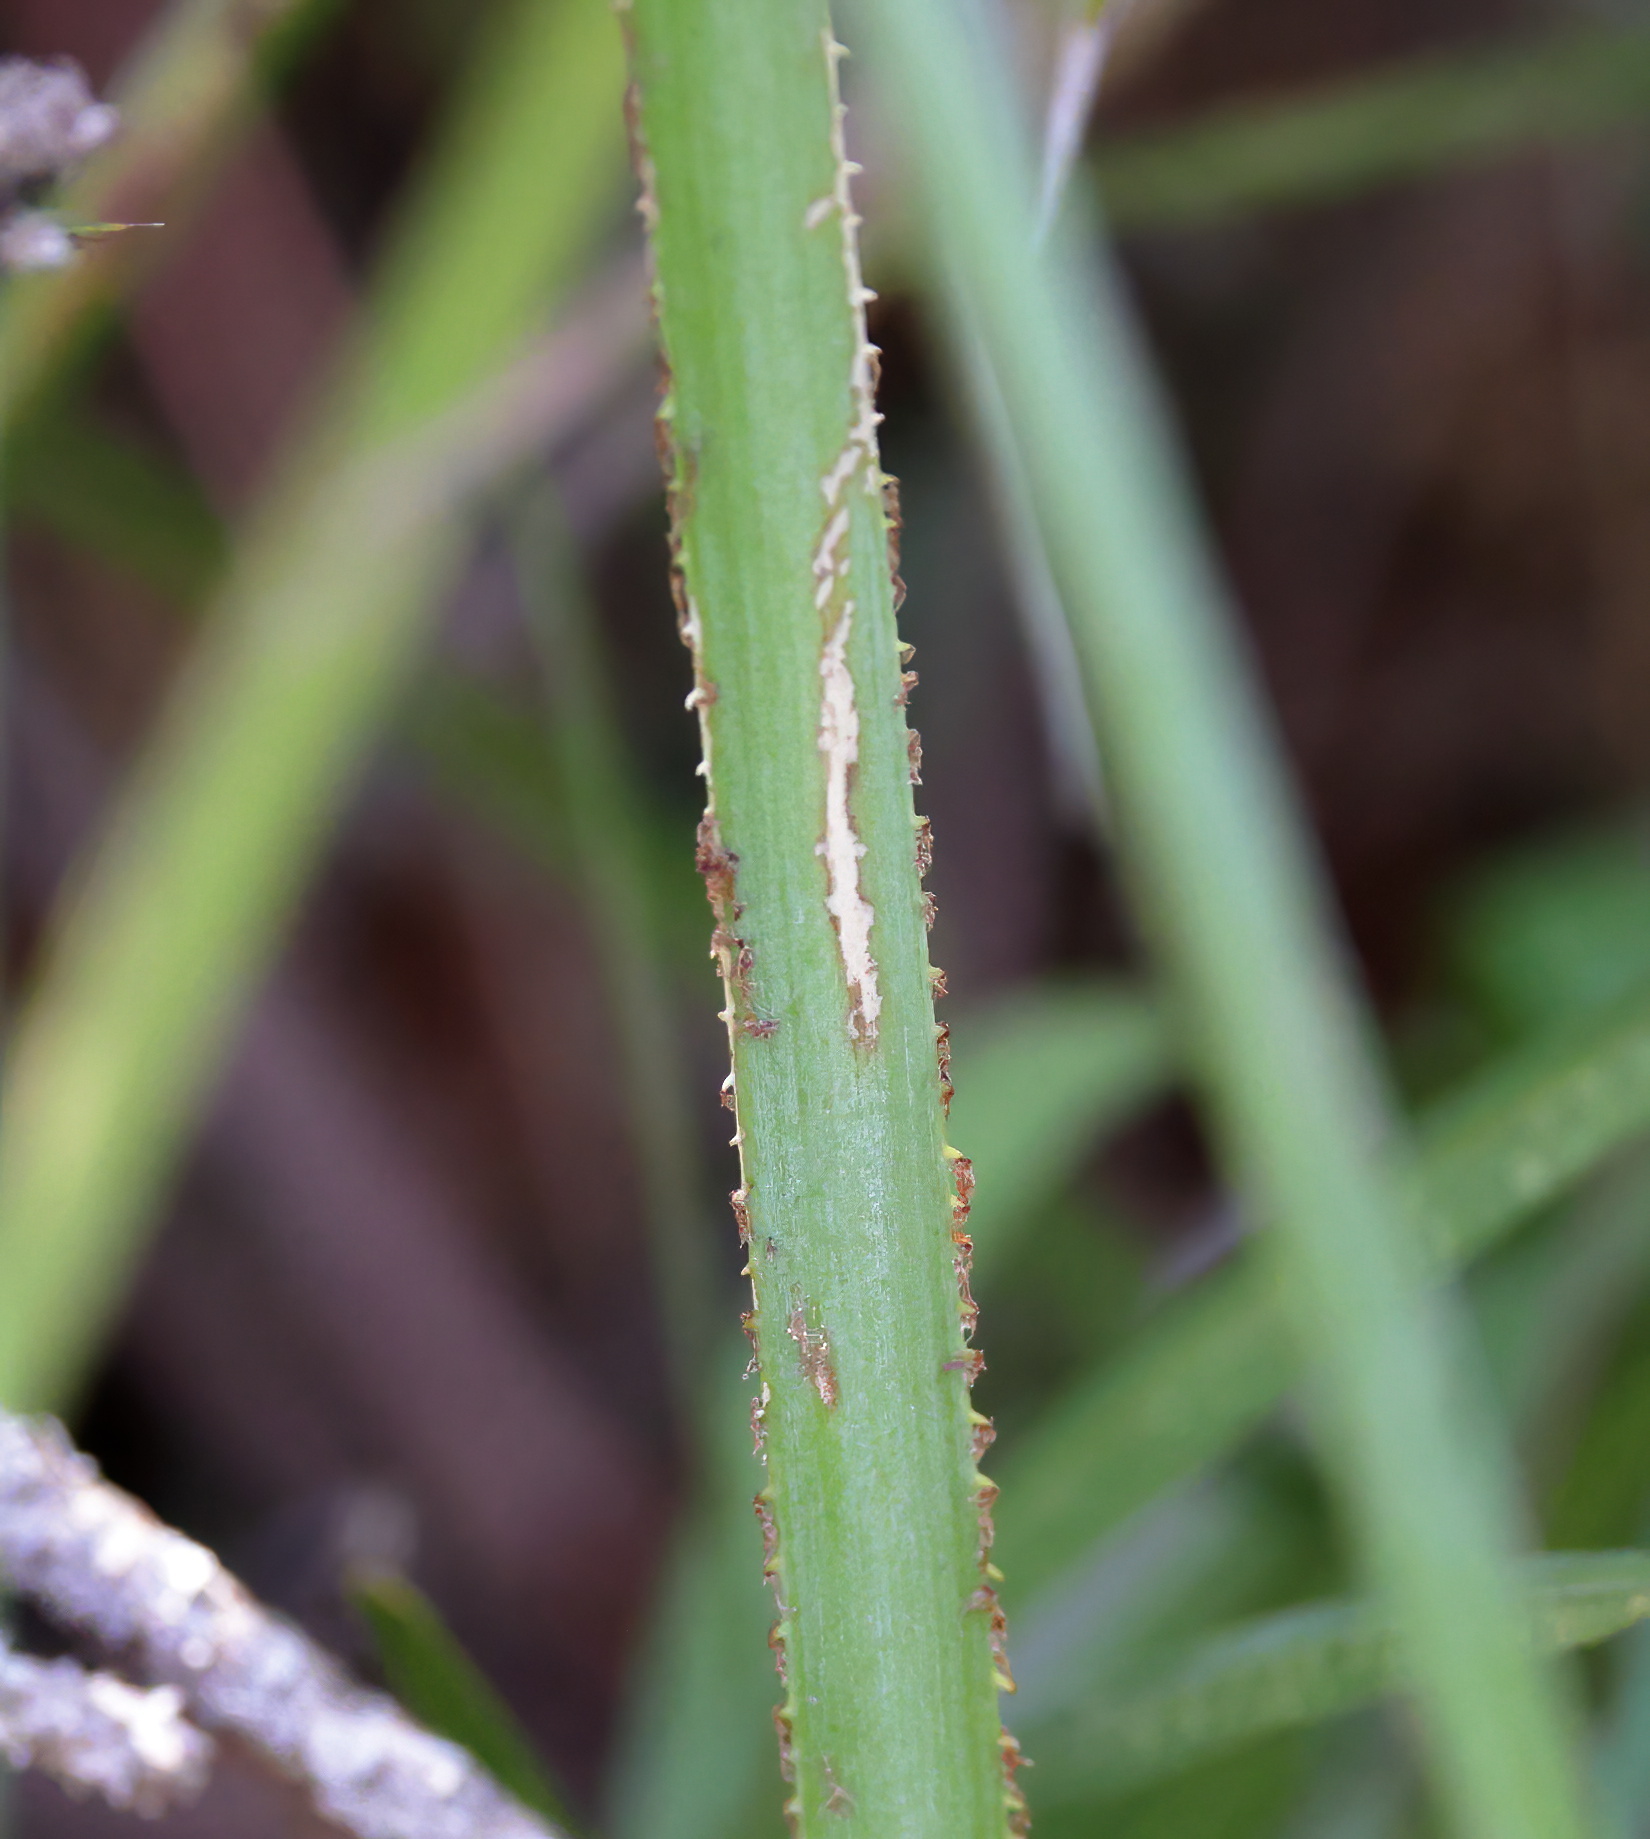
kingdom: Plantae
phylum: Tracheophyta
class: Liliopsida
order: Arecales
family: Arecaceae
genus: Serenoa
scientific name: Serenoa repens
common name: Saw-palmetto
